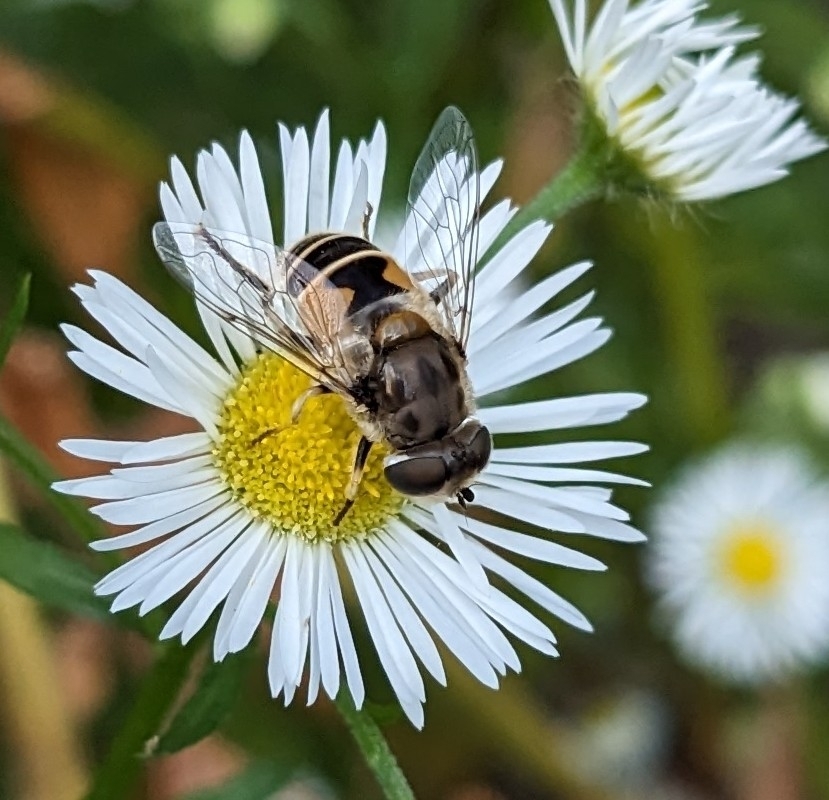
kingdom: Animalia
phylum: Arthropoda
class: Insecta
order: Diptera
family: Syrphidae
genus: Eristalis
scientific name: Eristalis arbustorum
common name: Hover fly
